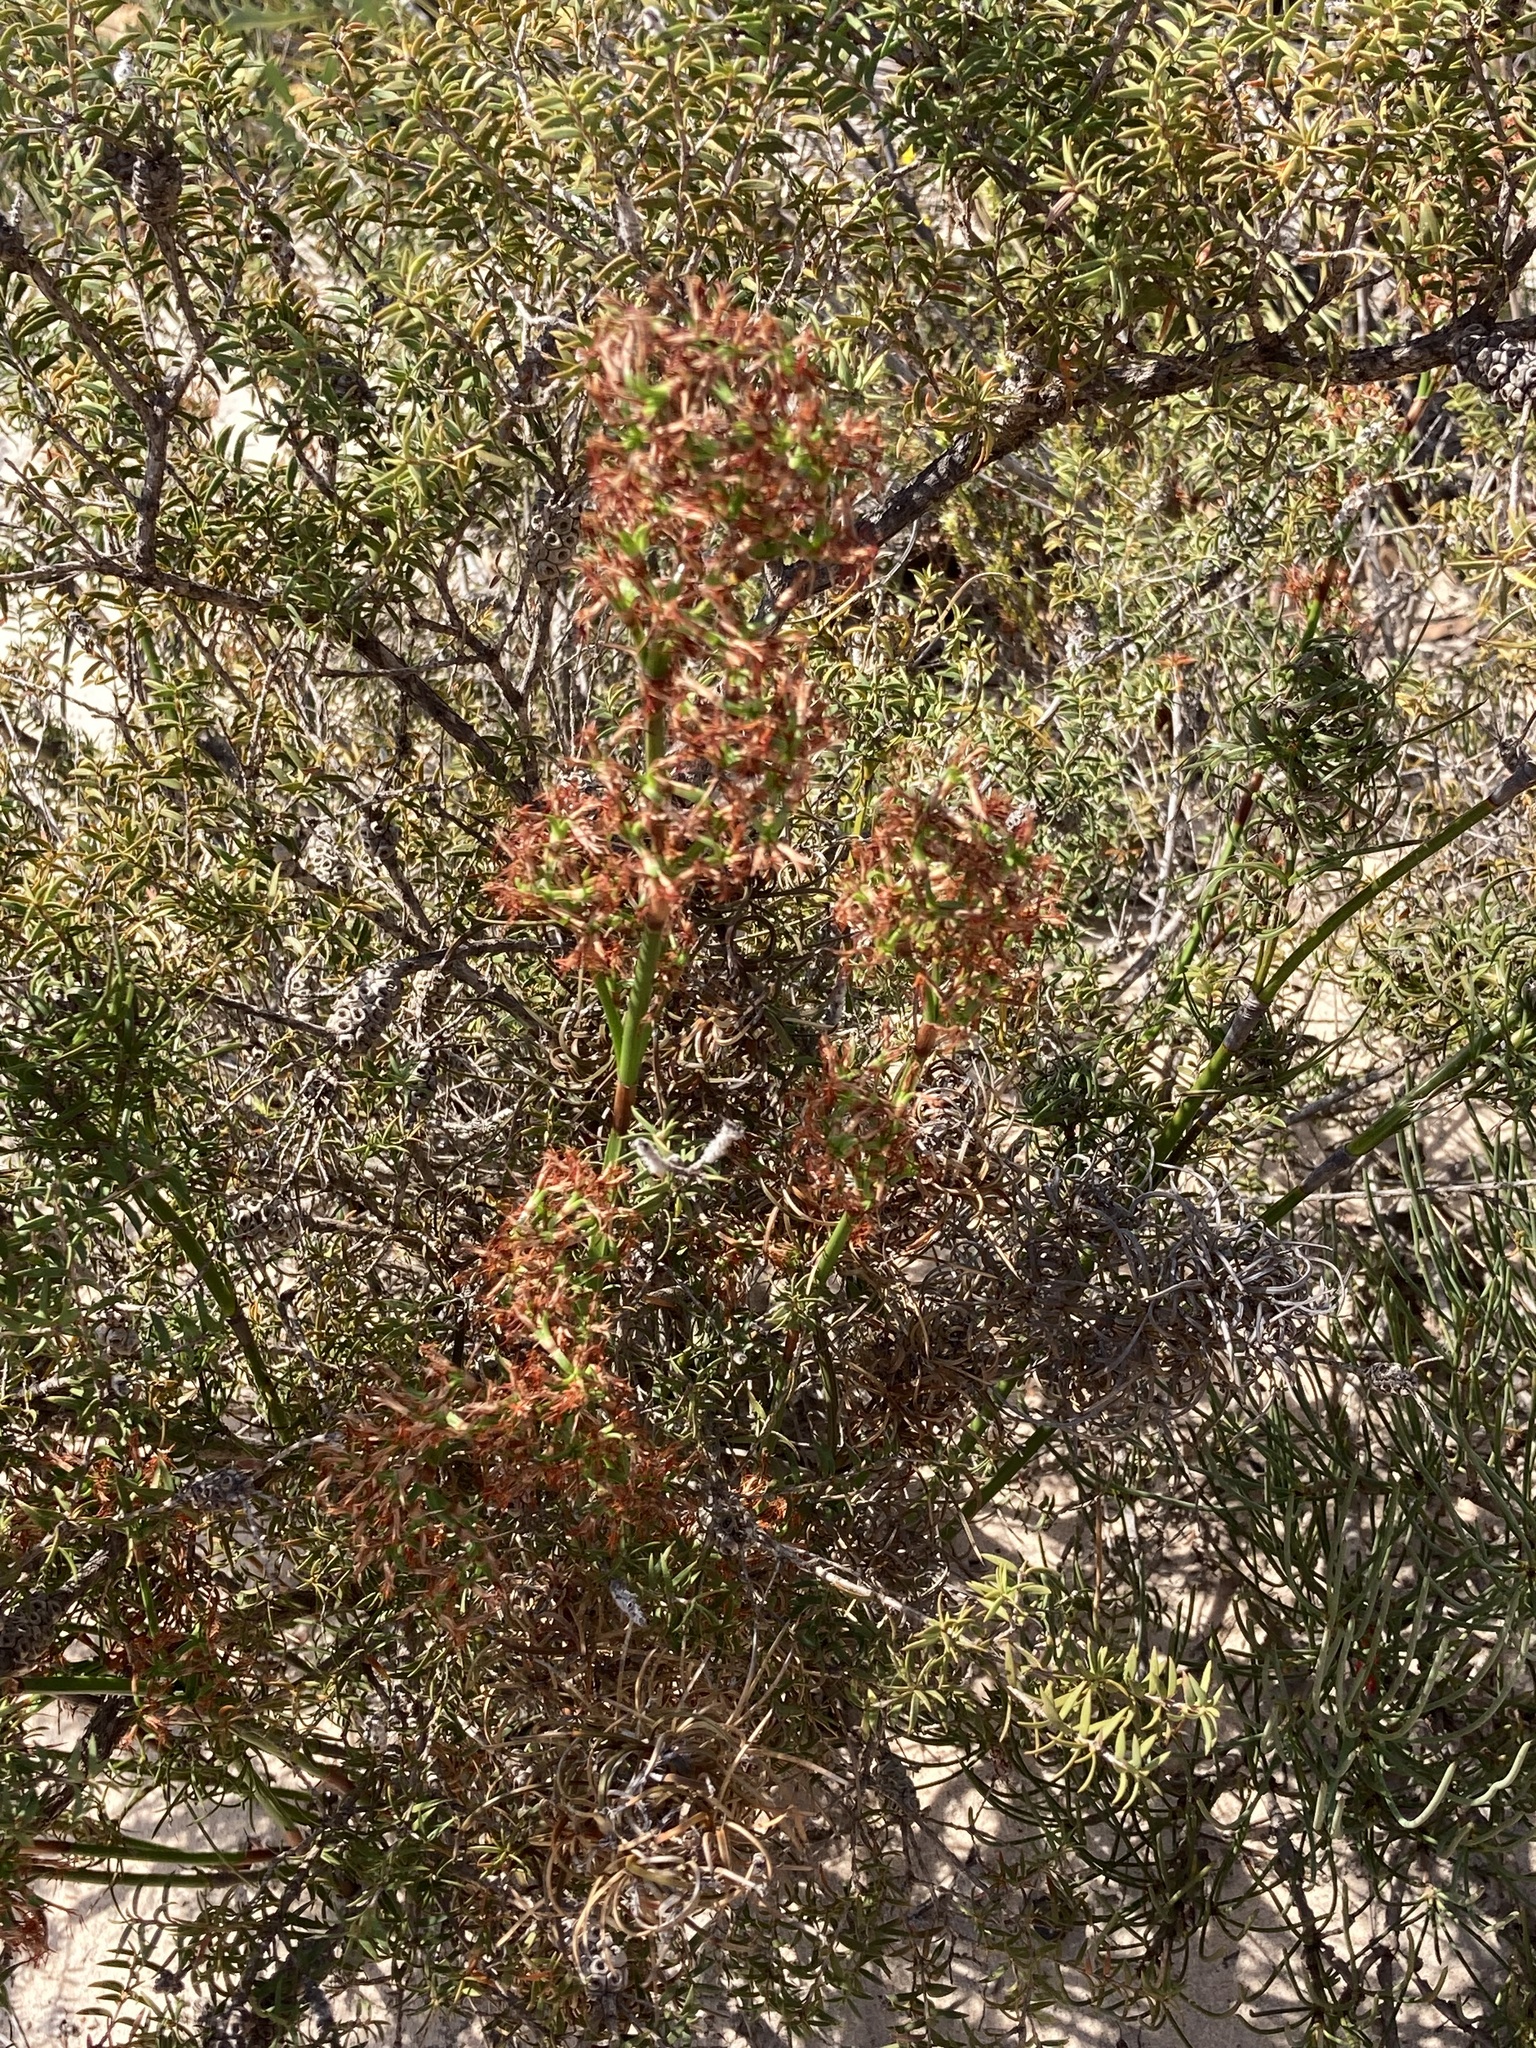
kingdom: Plantae
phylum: Tracheophyta
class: Liliopsida
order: Poales
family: Cyperaceae
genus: Caustis
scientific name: Caustis dioica
